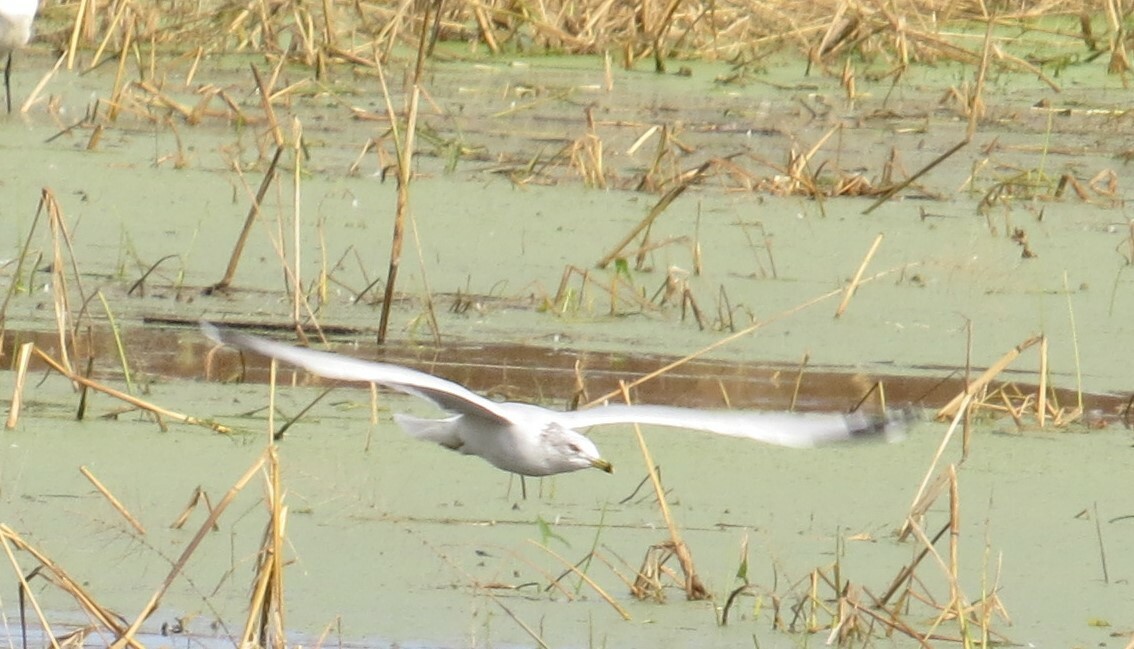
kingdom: Animalia
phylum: Chordata
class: Aves
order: Charadriiformes
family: Laridae
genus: Larus
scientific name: Larus delawarensis
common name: Ring-billed gull
